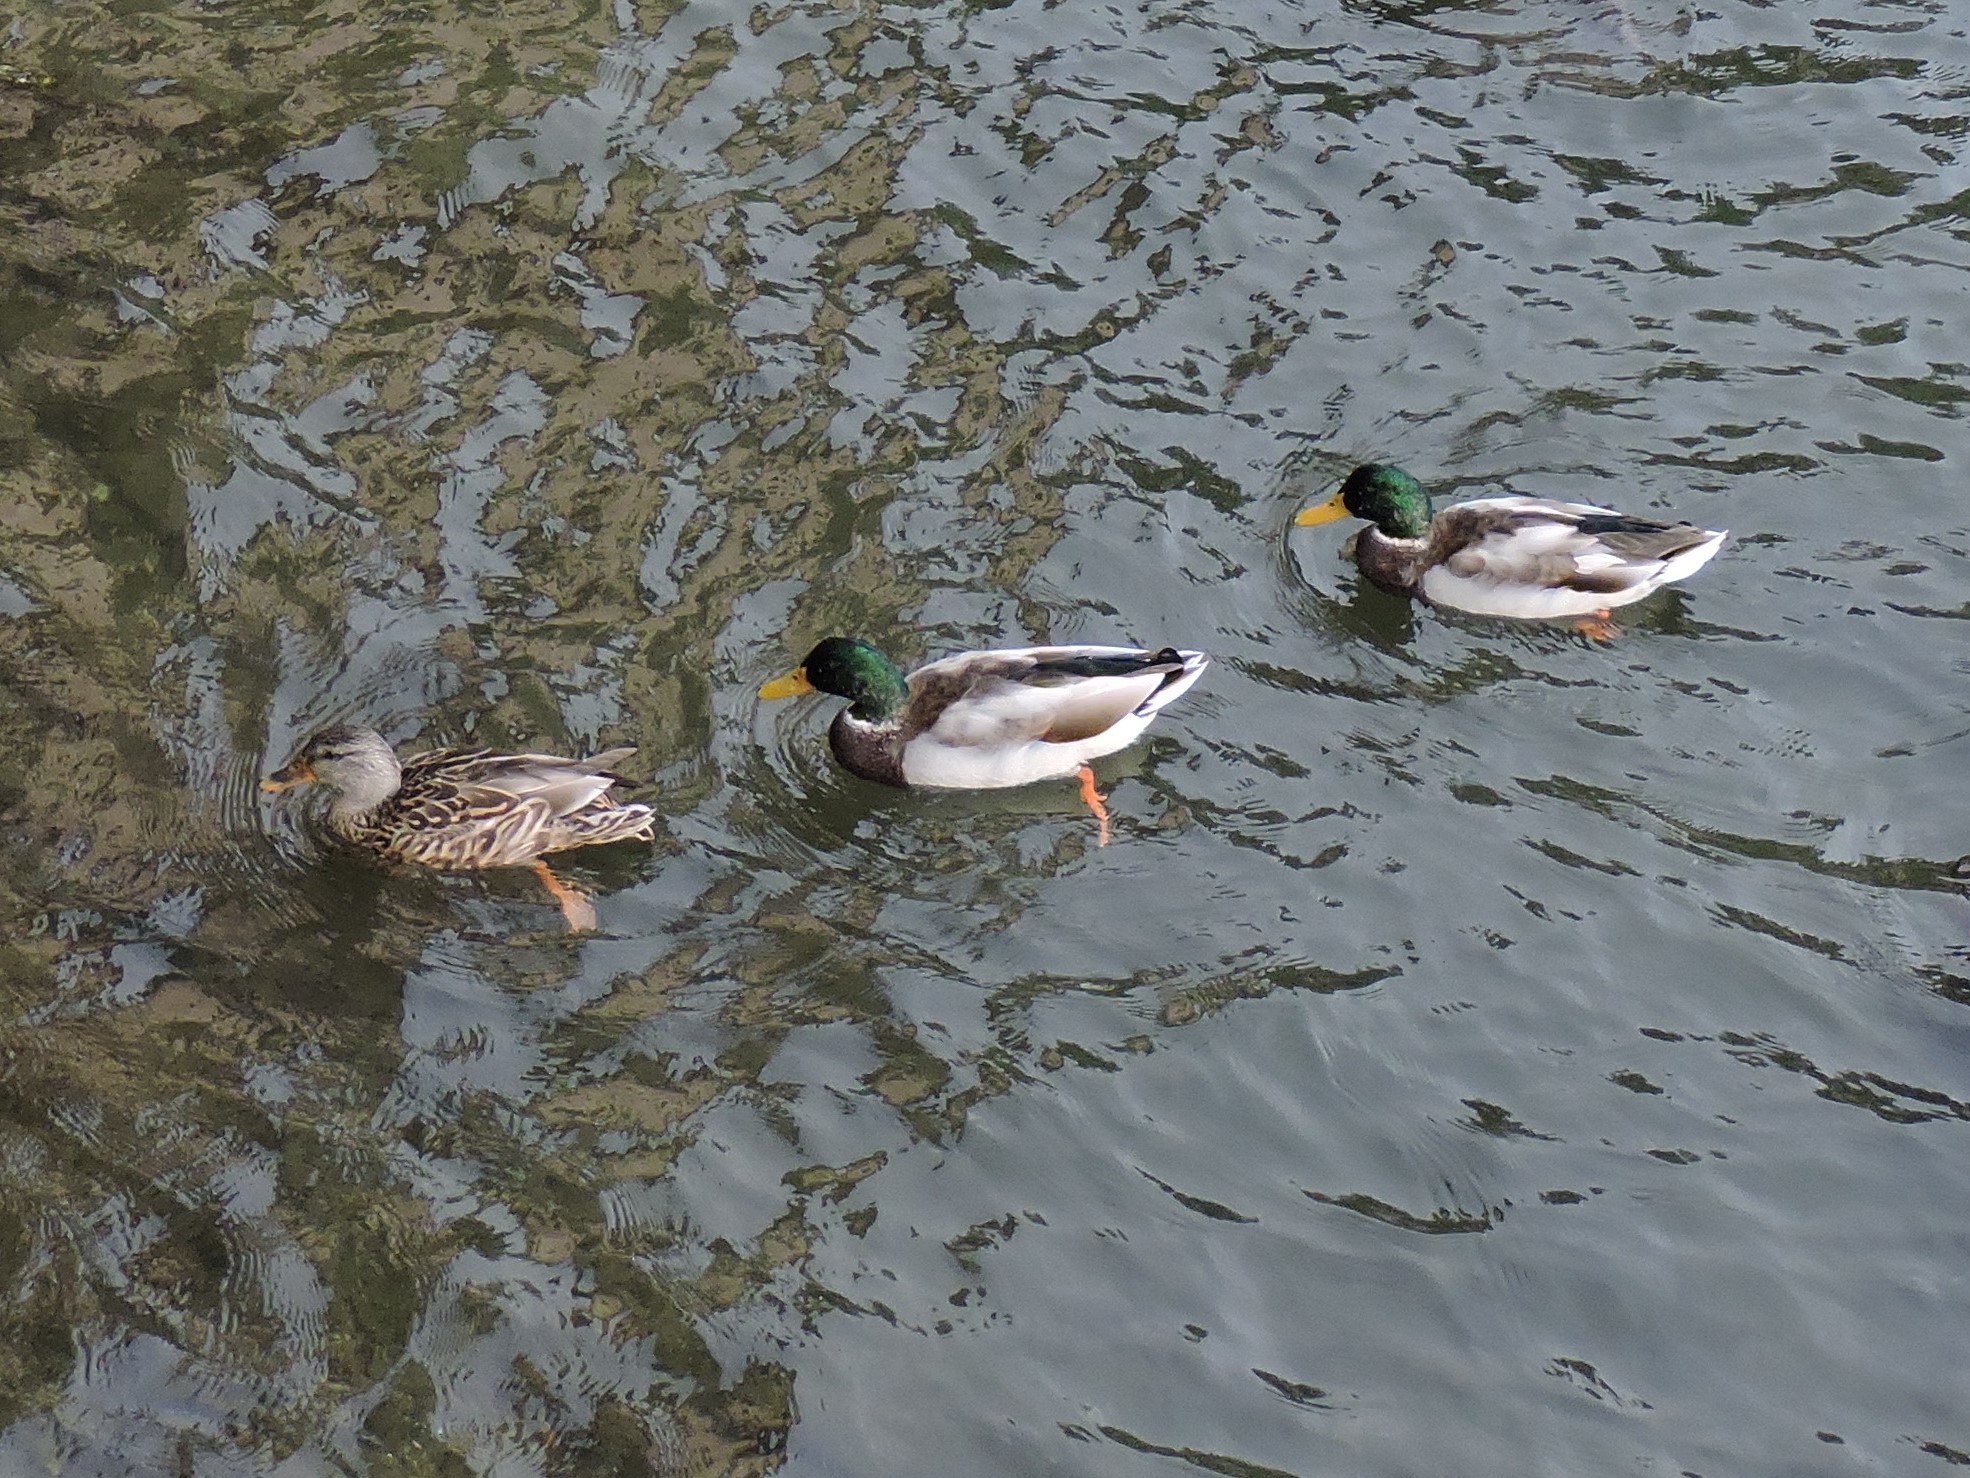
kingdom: Animalia
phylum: Chordata
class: Aves
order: Anseriformes
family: Anatidae
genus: Anas
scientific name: Anas platyrhynchos
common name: Mallard
